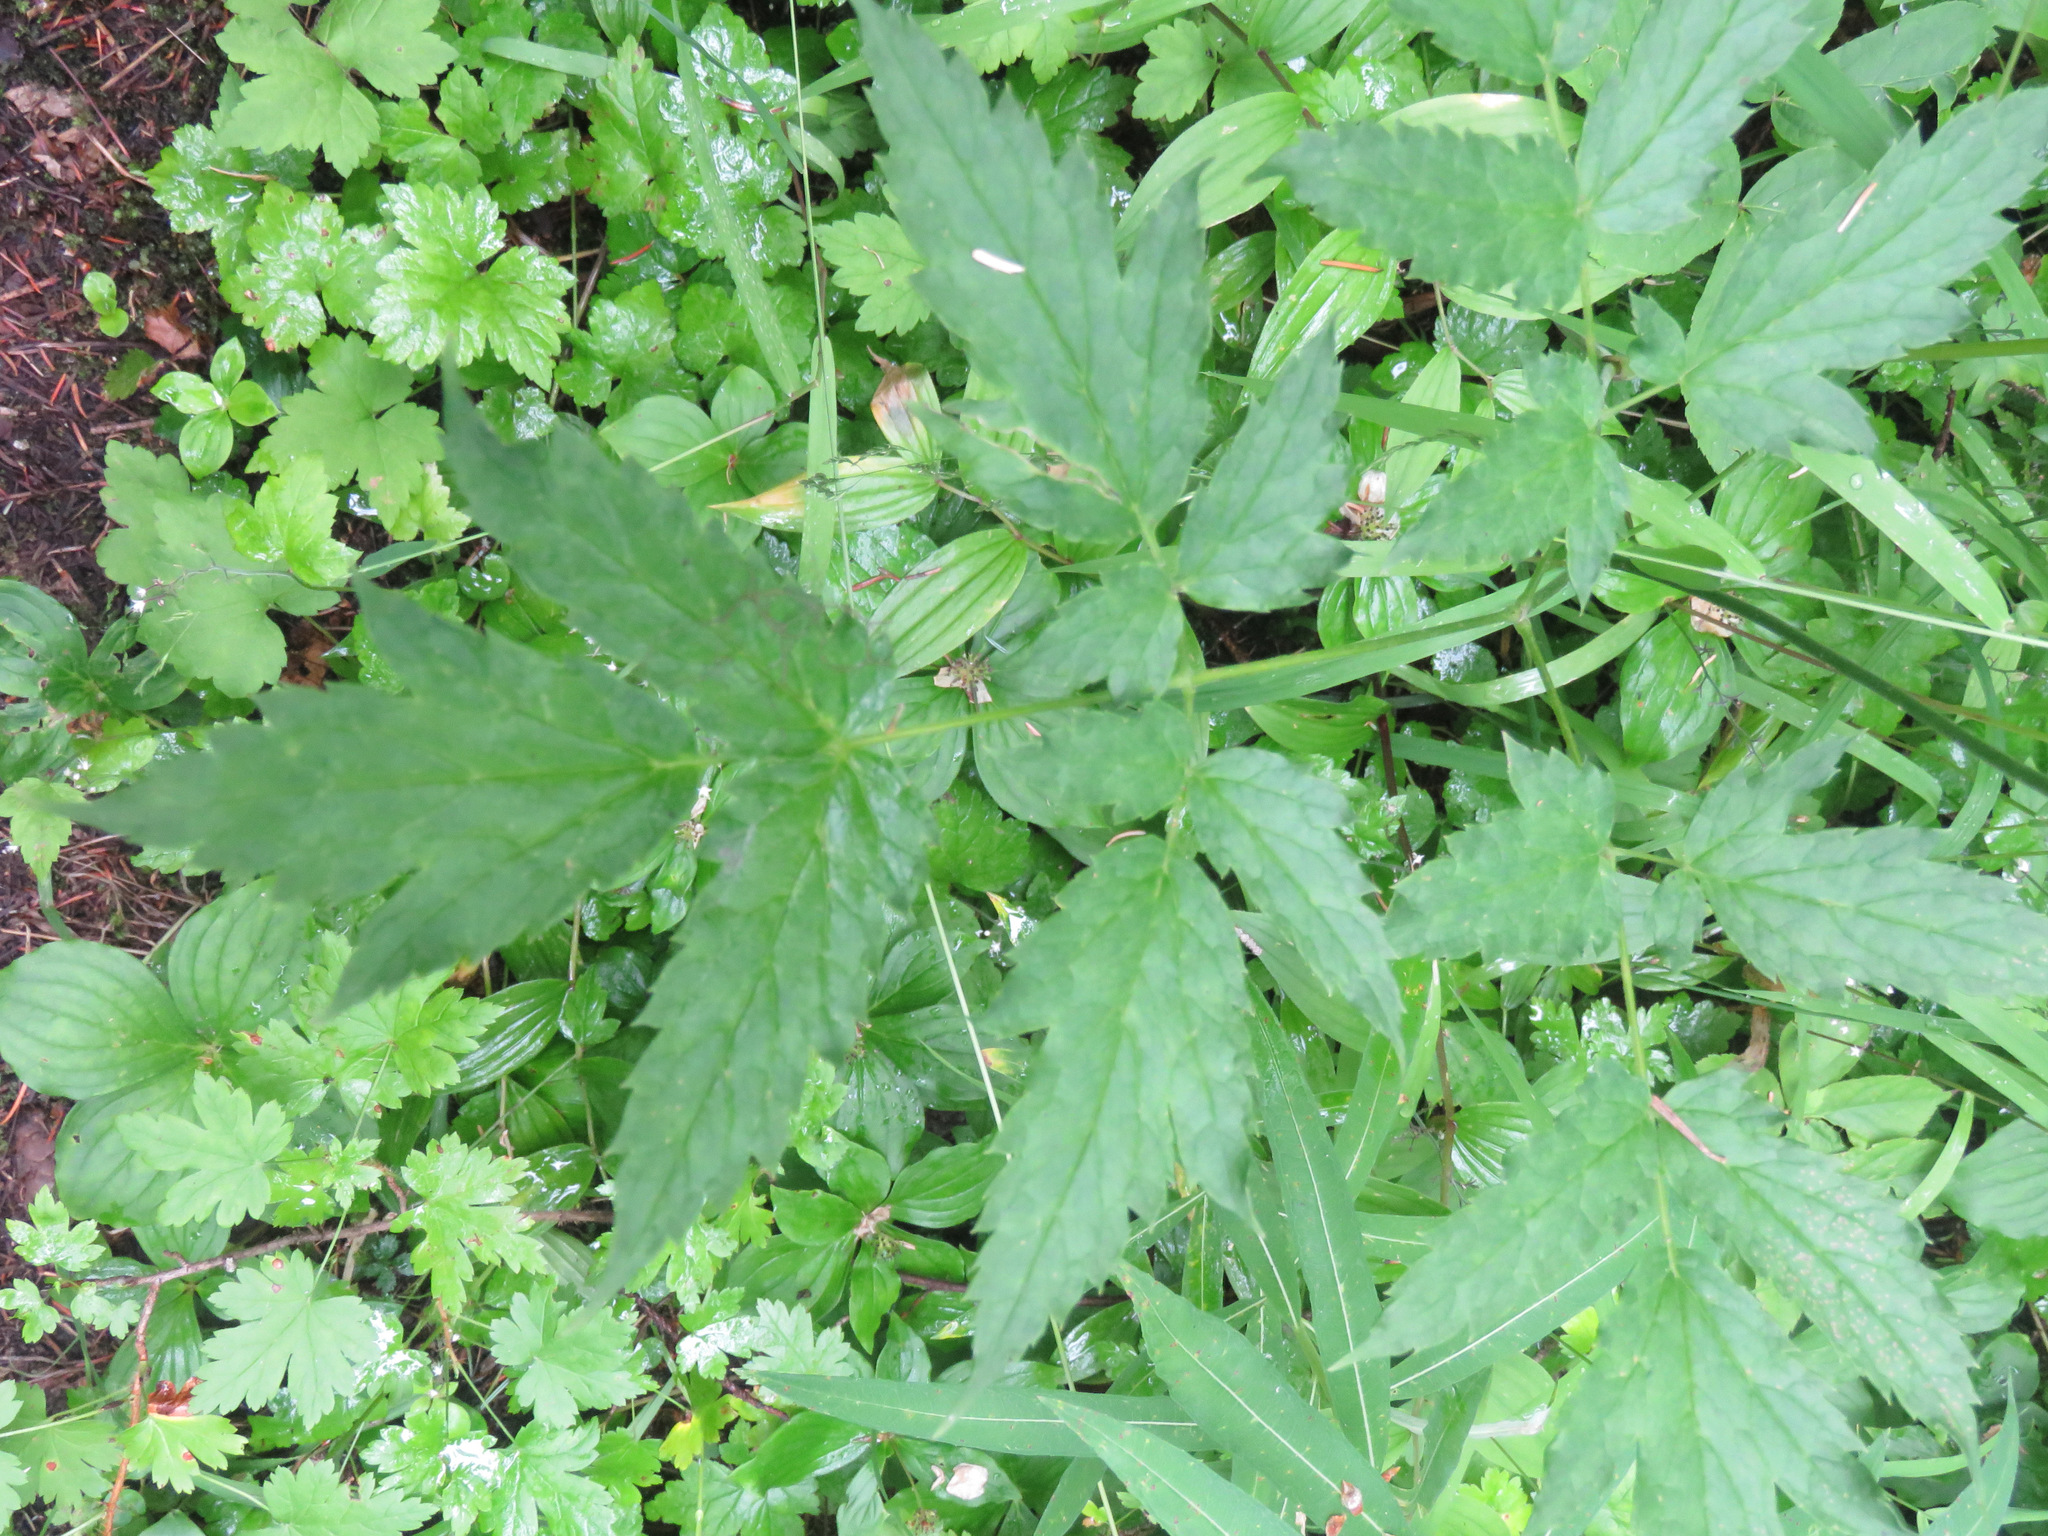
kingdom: Plantae
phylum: Tracheophyta
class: Magnoliopsida
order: Ranunculales
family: Ranunculaceae
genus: Actaea
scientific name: Actaea rubra
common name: Red baneberry
